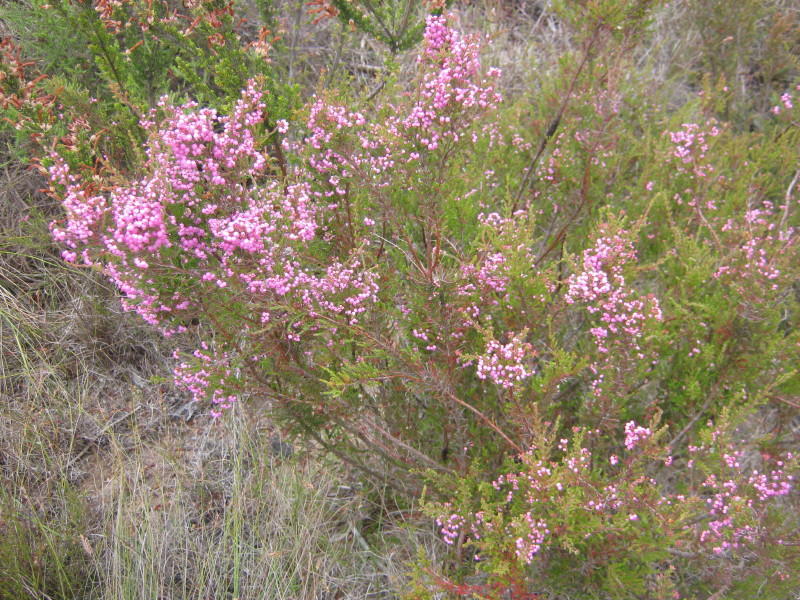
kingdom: Plantae
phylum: Tracheophyta
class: Magnoliopsida
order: Ericales
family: Ericaceae
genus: Erica
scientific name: Erica gracilis
